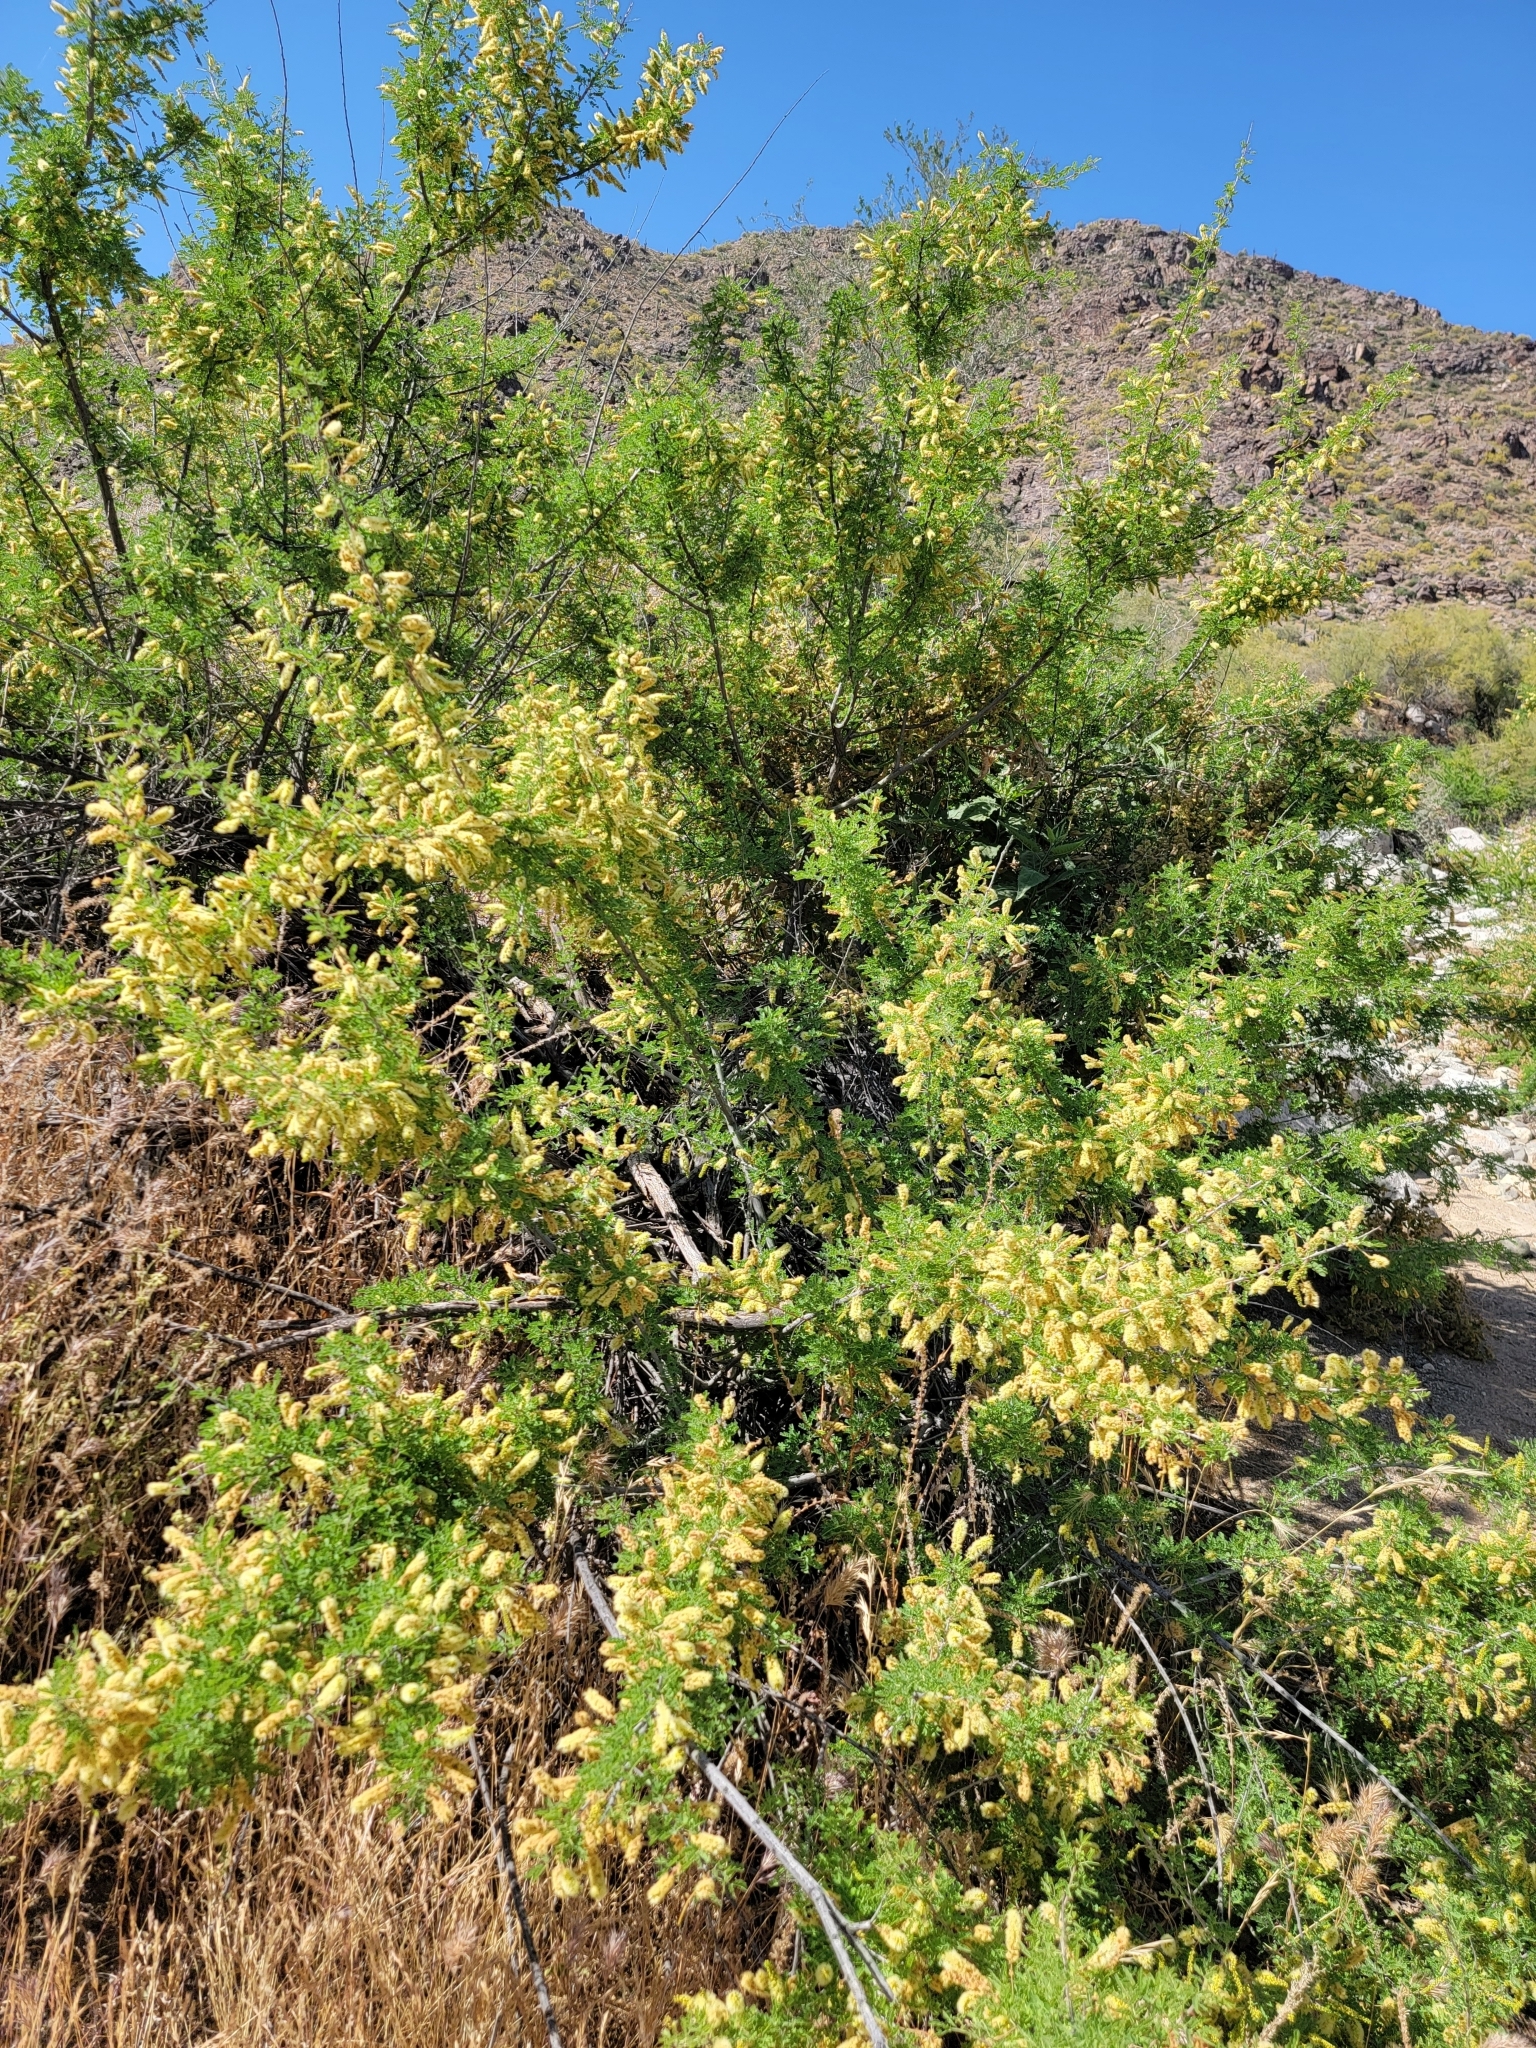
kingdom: Plantae
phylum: Tracheophyta
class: Magnoliopsida
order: Fabales
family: Fabaceae
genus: Senegalia
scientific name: Senegalia greggii
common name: Texas-mimosa
